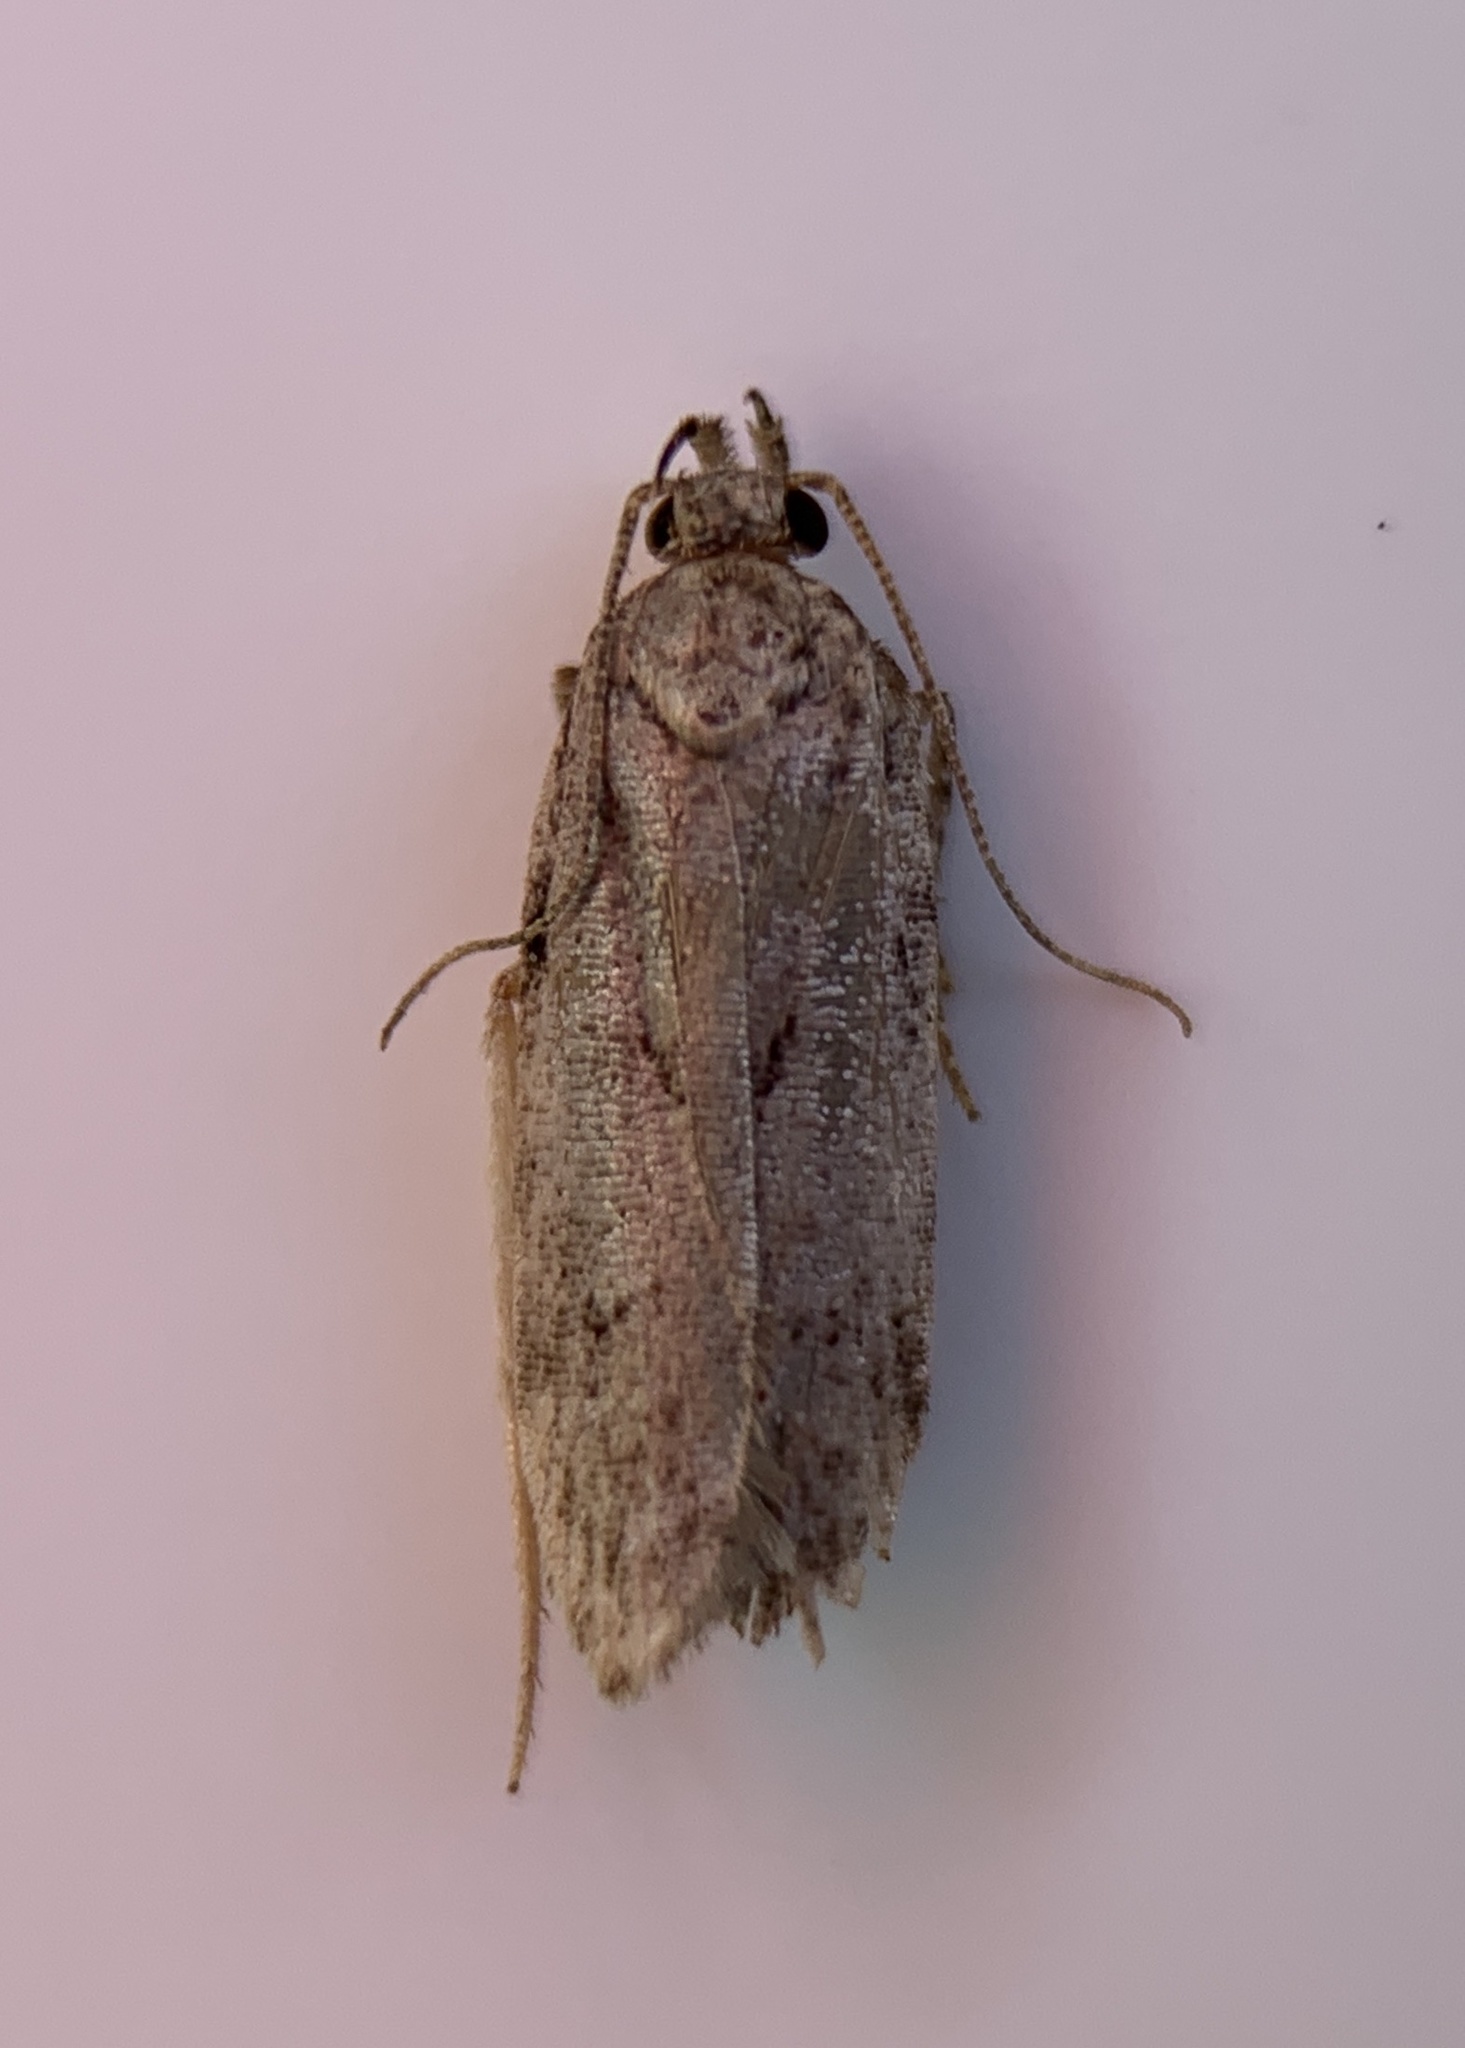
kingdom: Animalia
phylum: Arthropoda
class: Insecta
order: Lepidoptera
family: Gelechiidae
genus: Chionodes
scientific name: Chionodes pereyra
